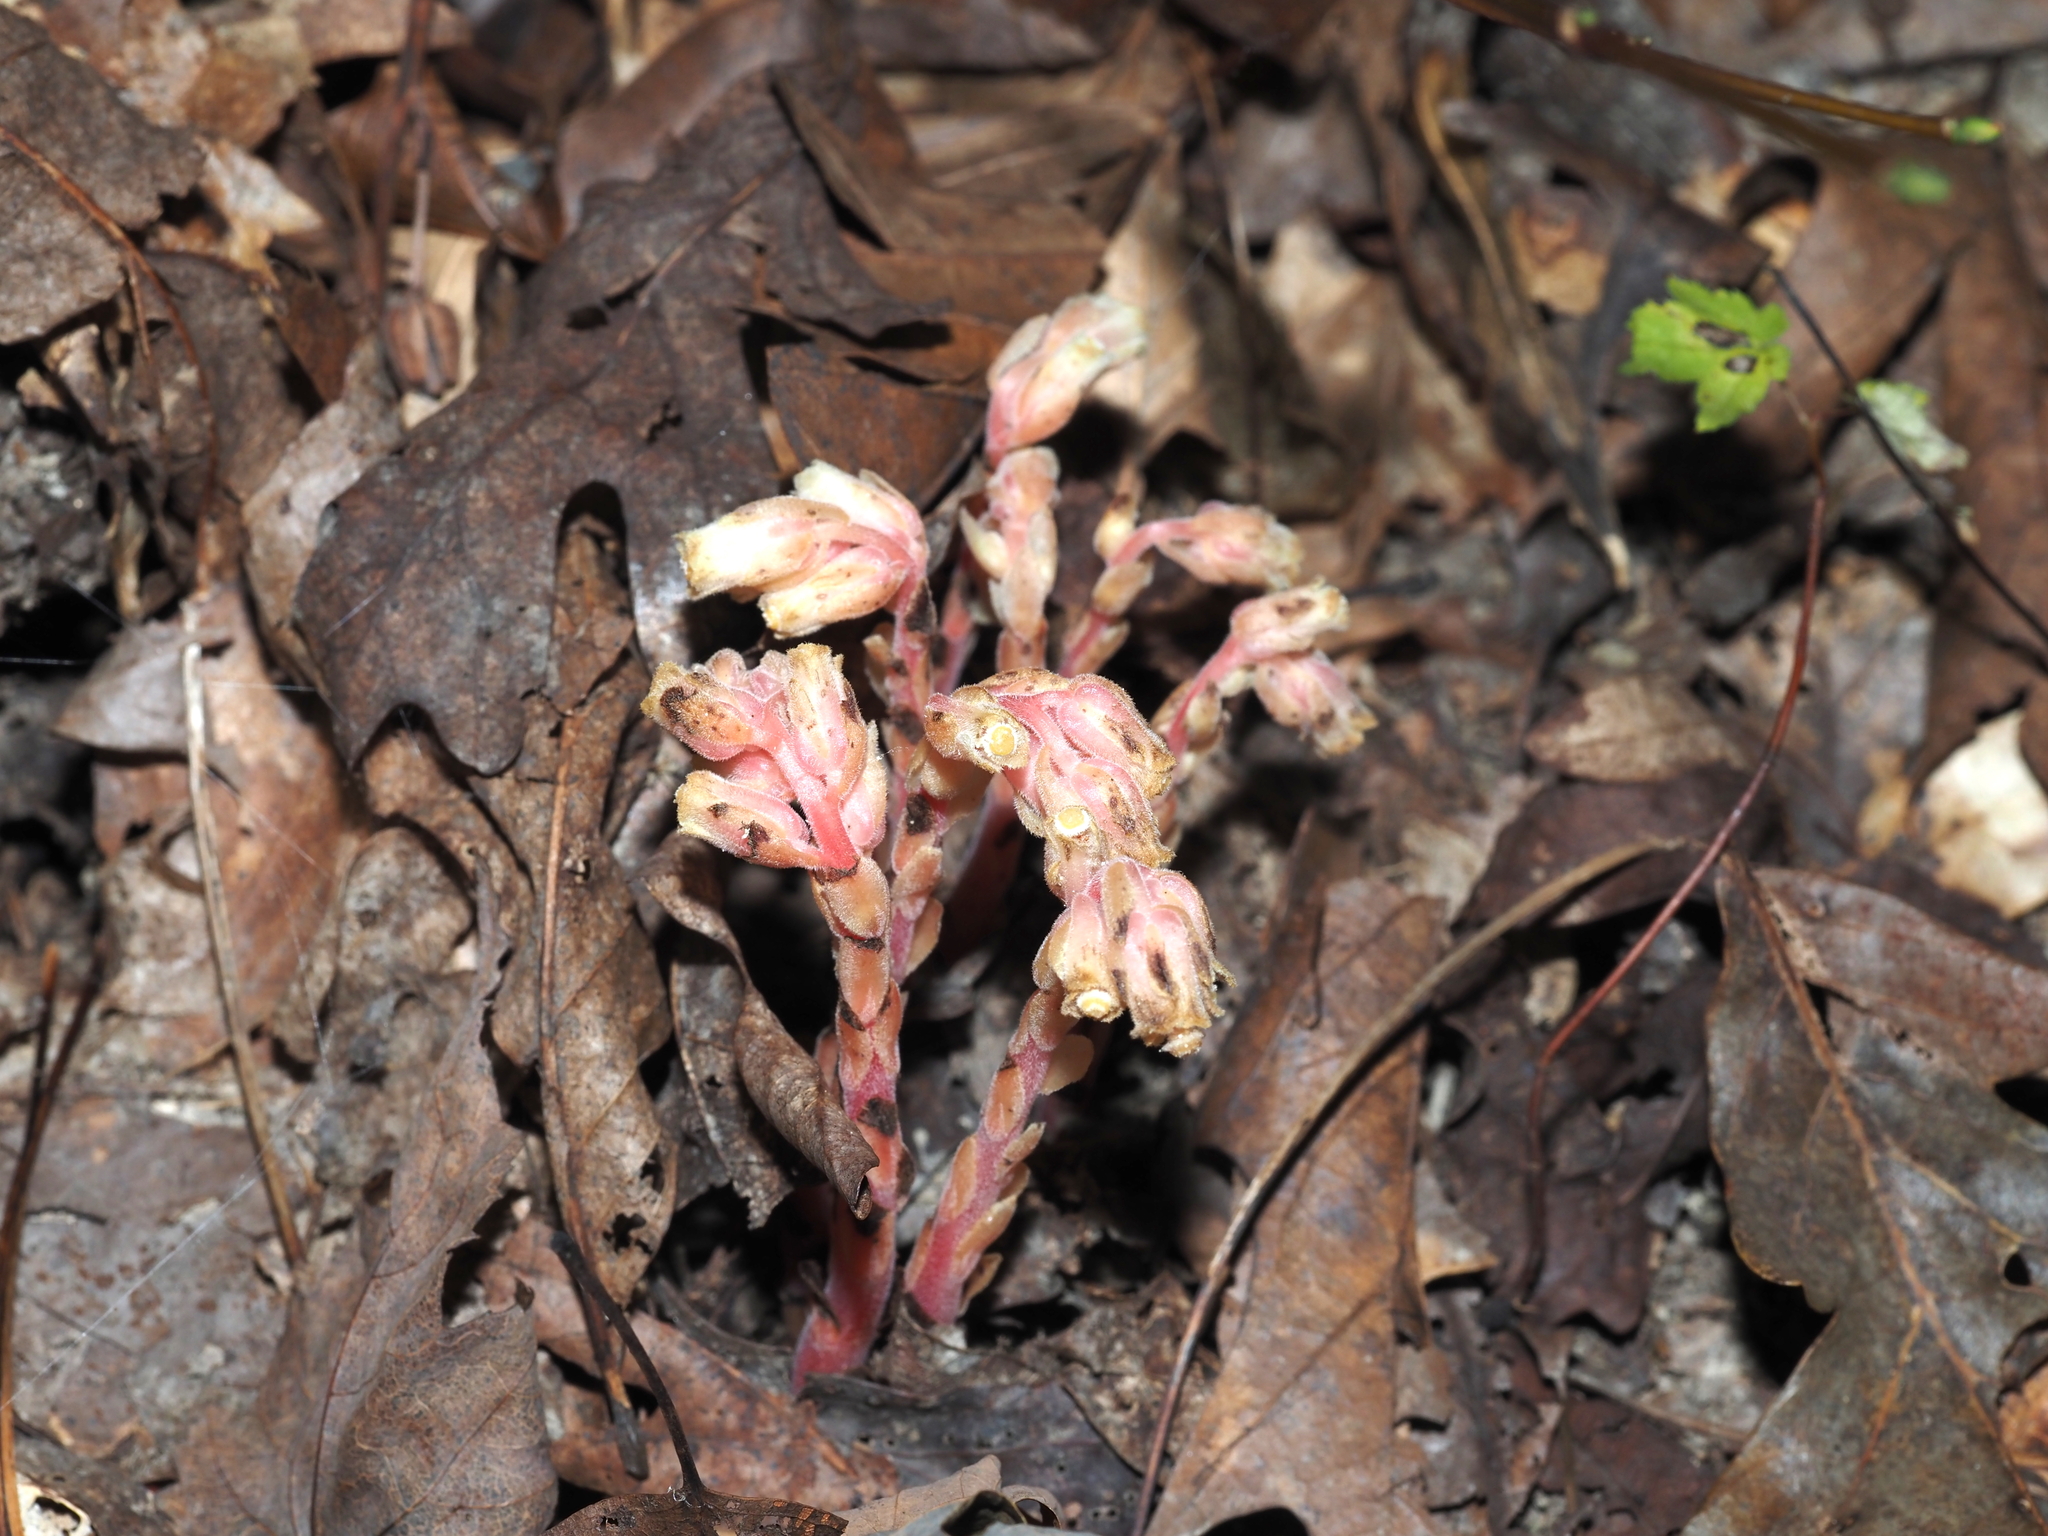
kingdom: Plantae
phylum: Tracheophyta
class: Magnoliopsida
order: Ericales
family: Ericaceae
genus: Hypopitys
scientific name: Hypopitys monotropa
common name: Yellow bird's-nest
